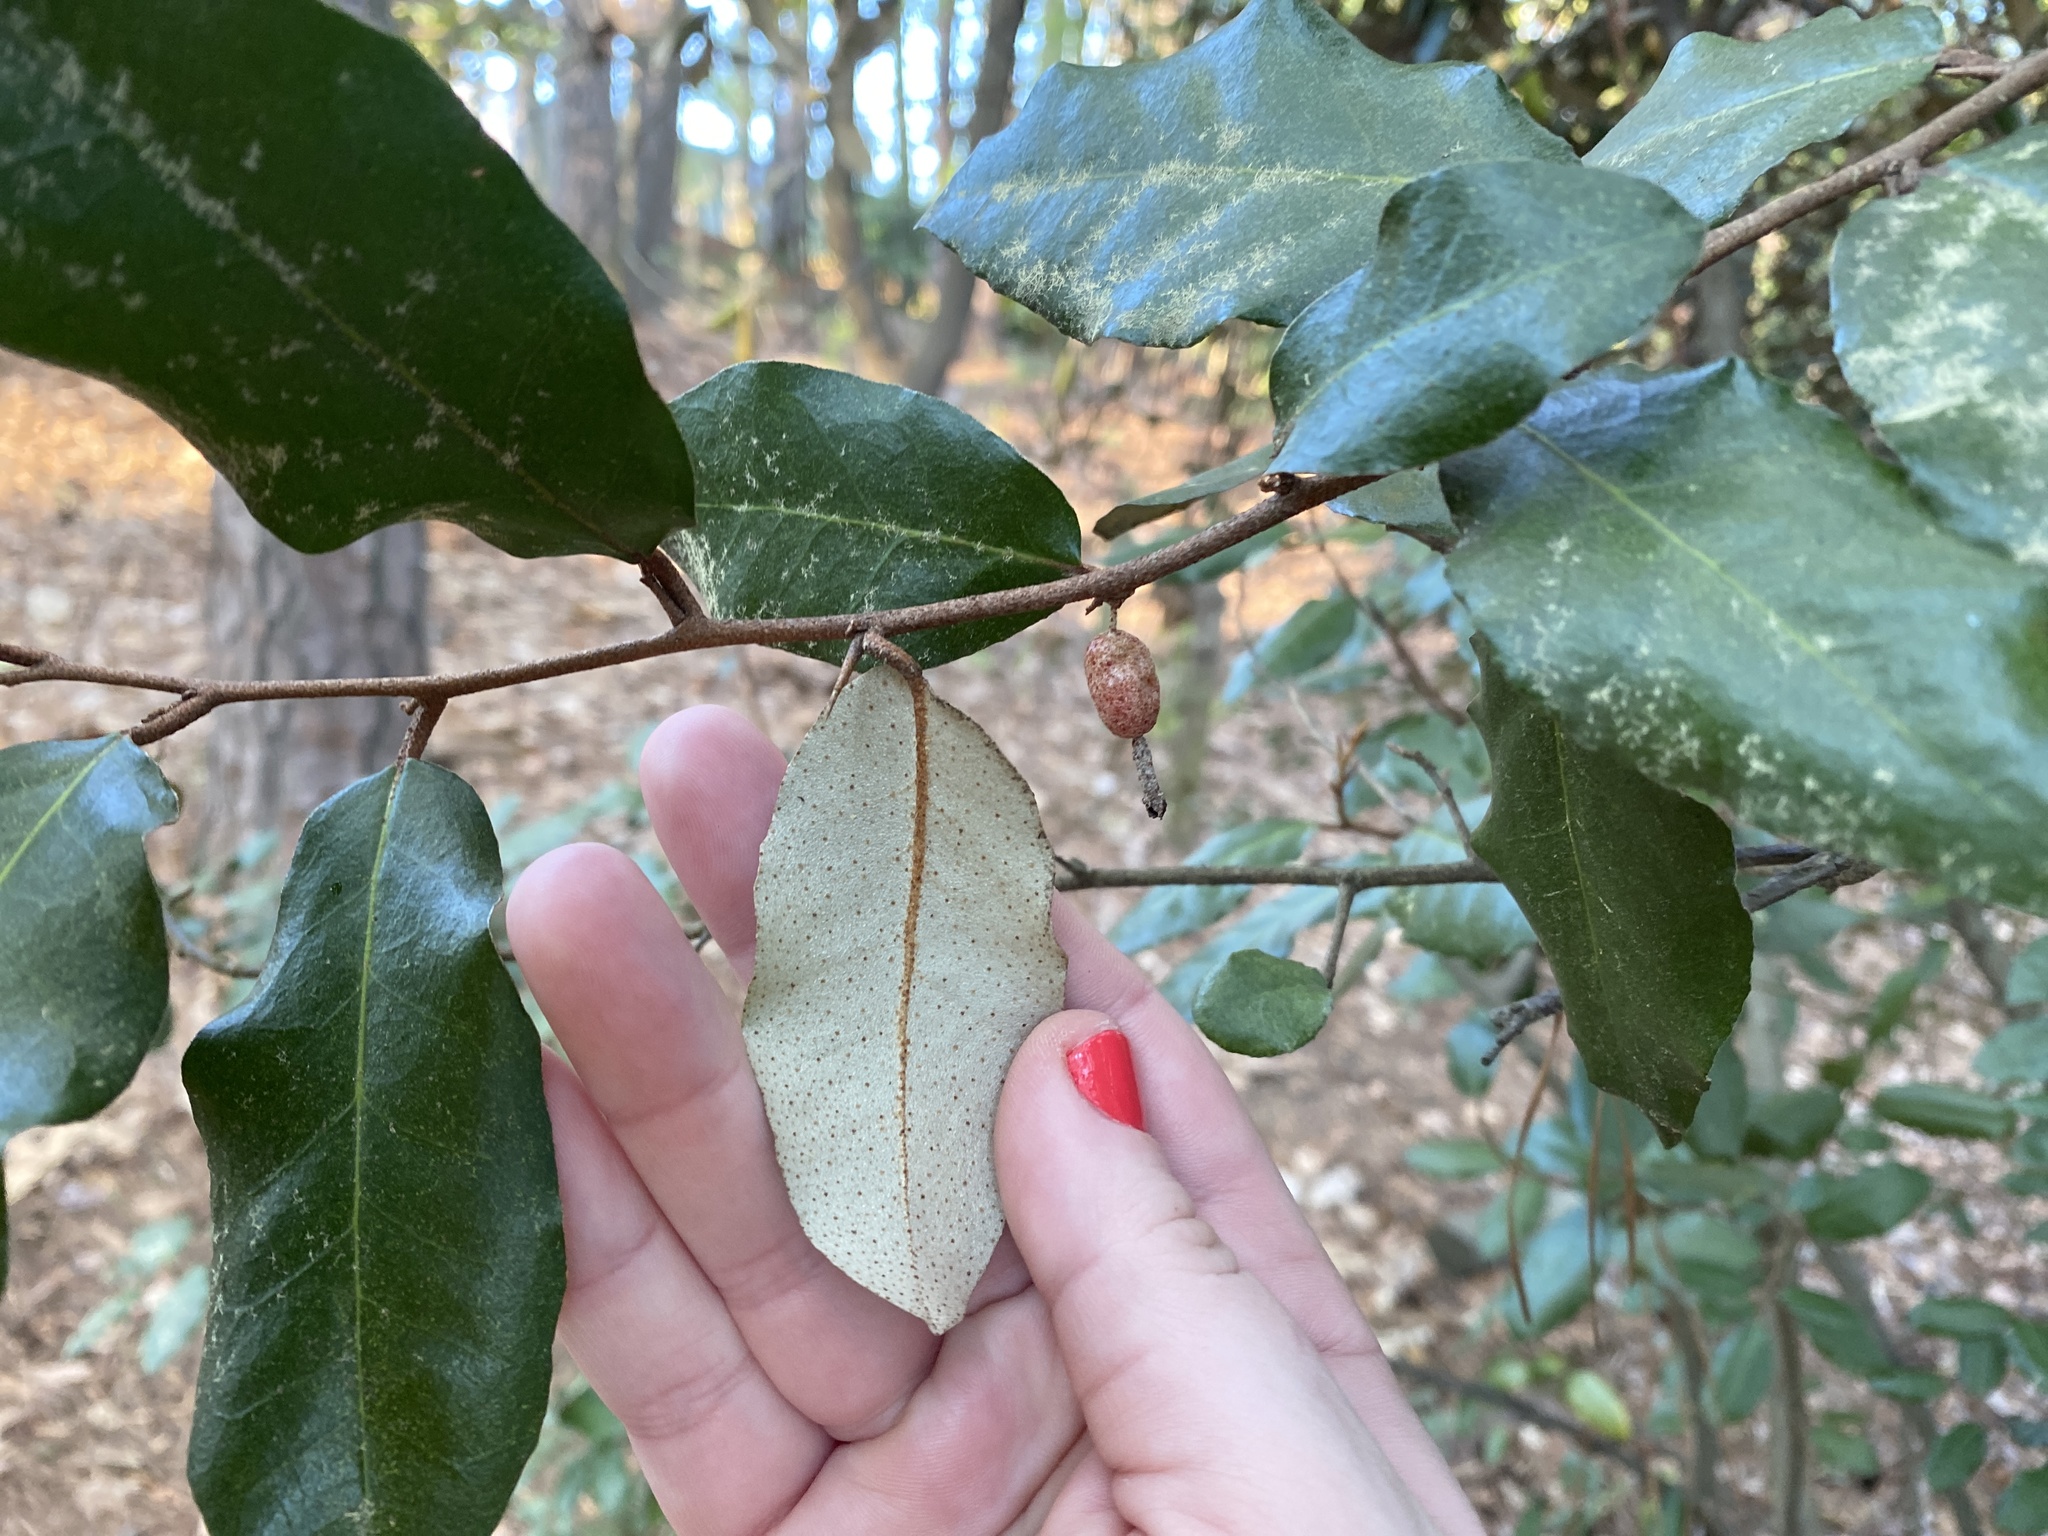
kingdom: Plantae
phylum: Tracheophyta
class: Magnoliopsida
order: Rosales
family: Elaeagnaceae
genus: Elaeagnus
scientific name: Elaeagnus pungens
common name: Spiny oleaster
